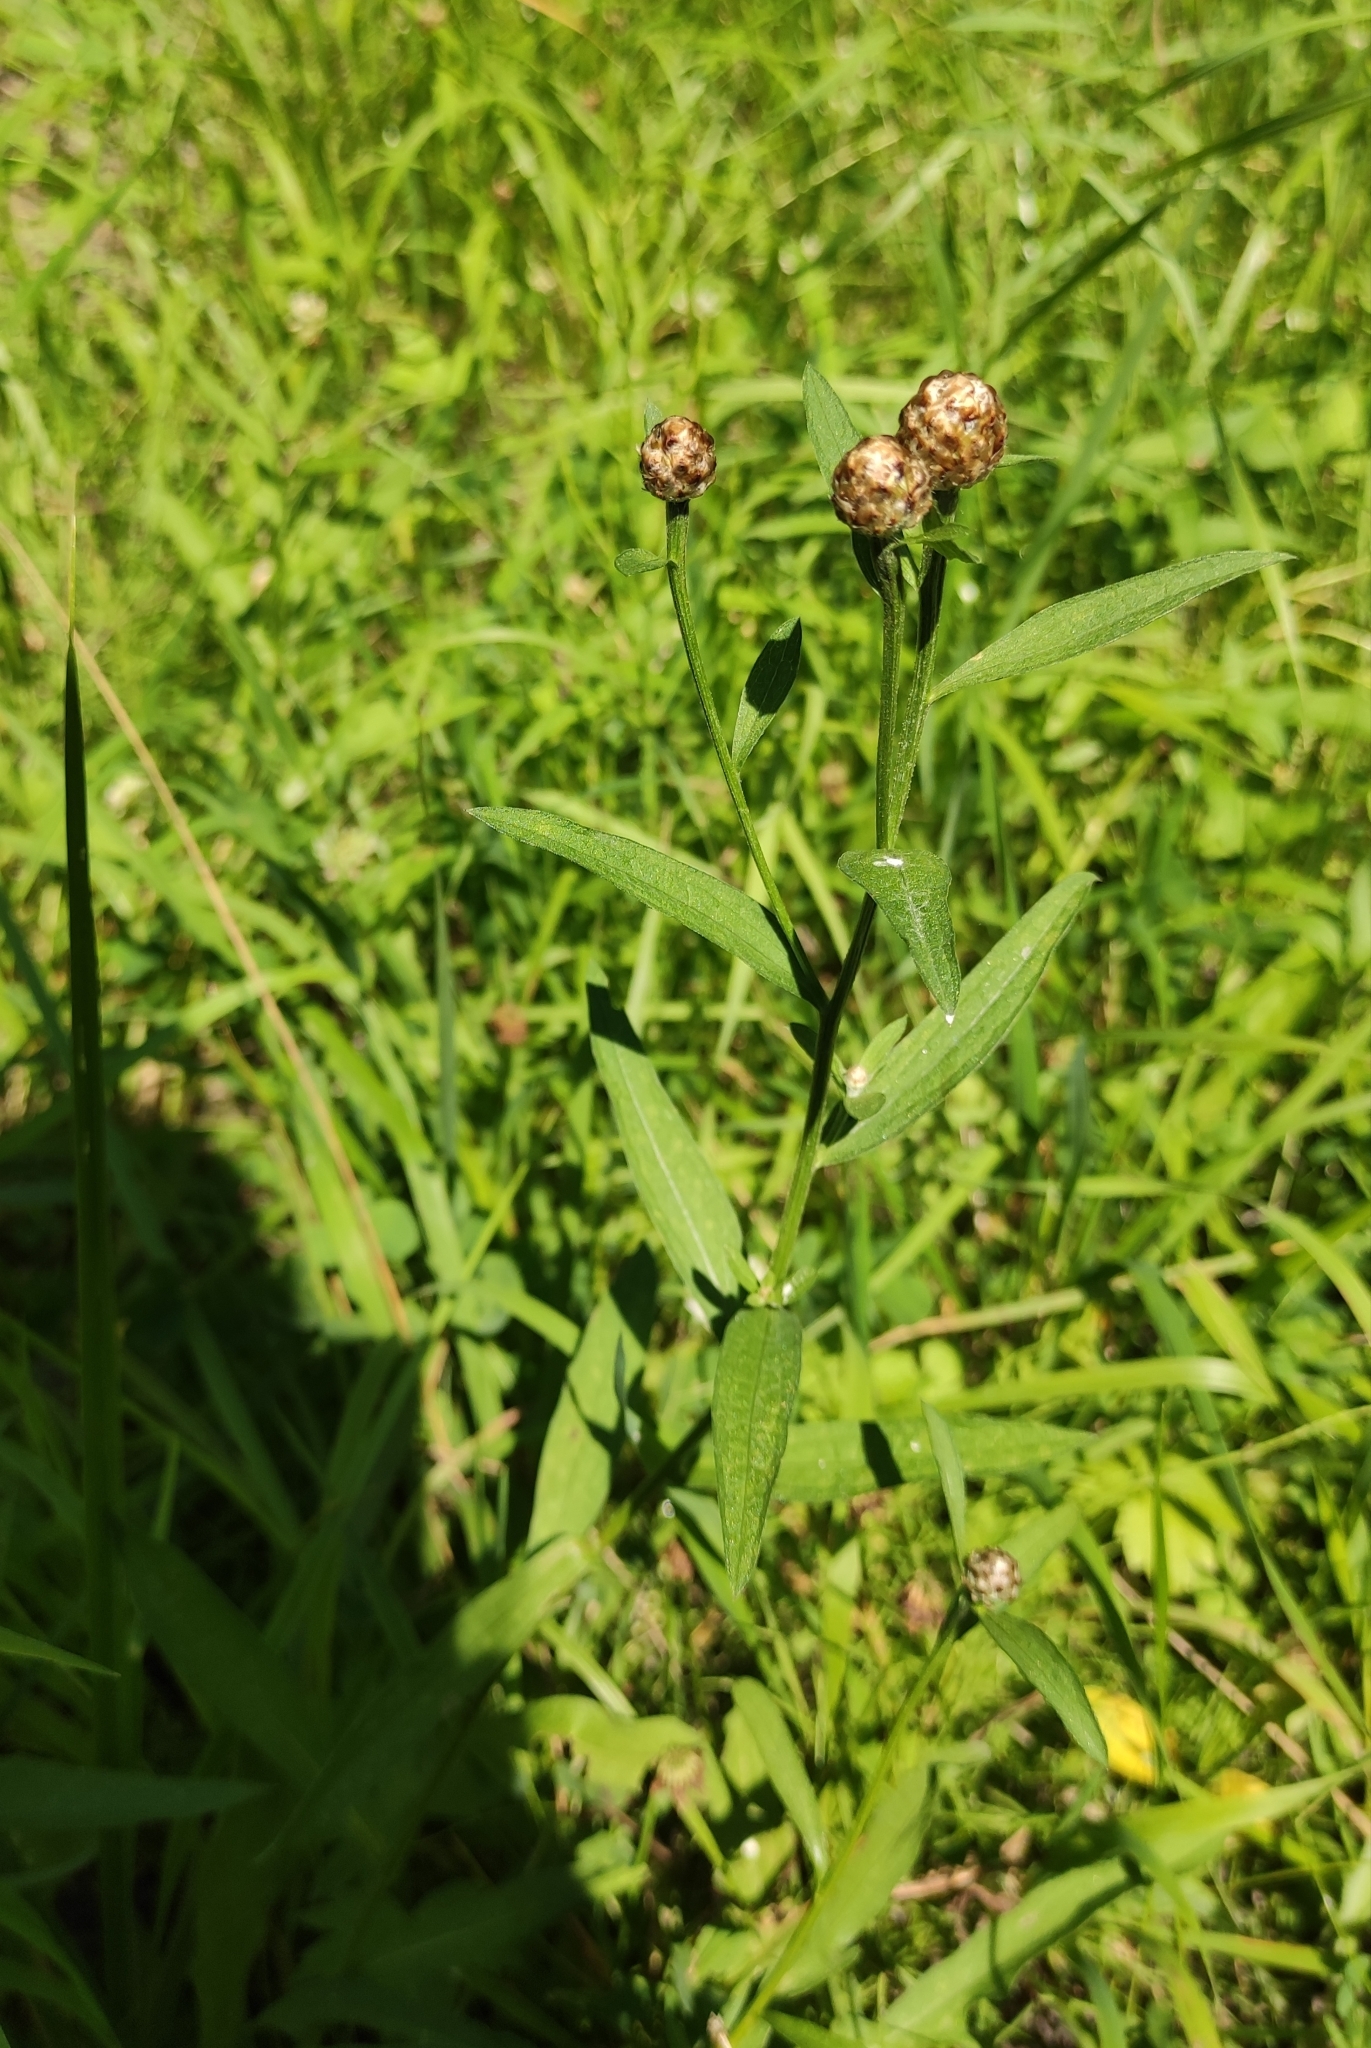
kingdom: Plantae
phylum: Tracheophyta
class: Magnoliopsida
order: Asterales
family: Asteraceae
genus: Centaurea
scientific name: Centaurea jacea
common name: Brown knapweed
